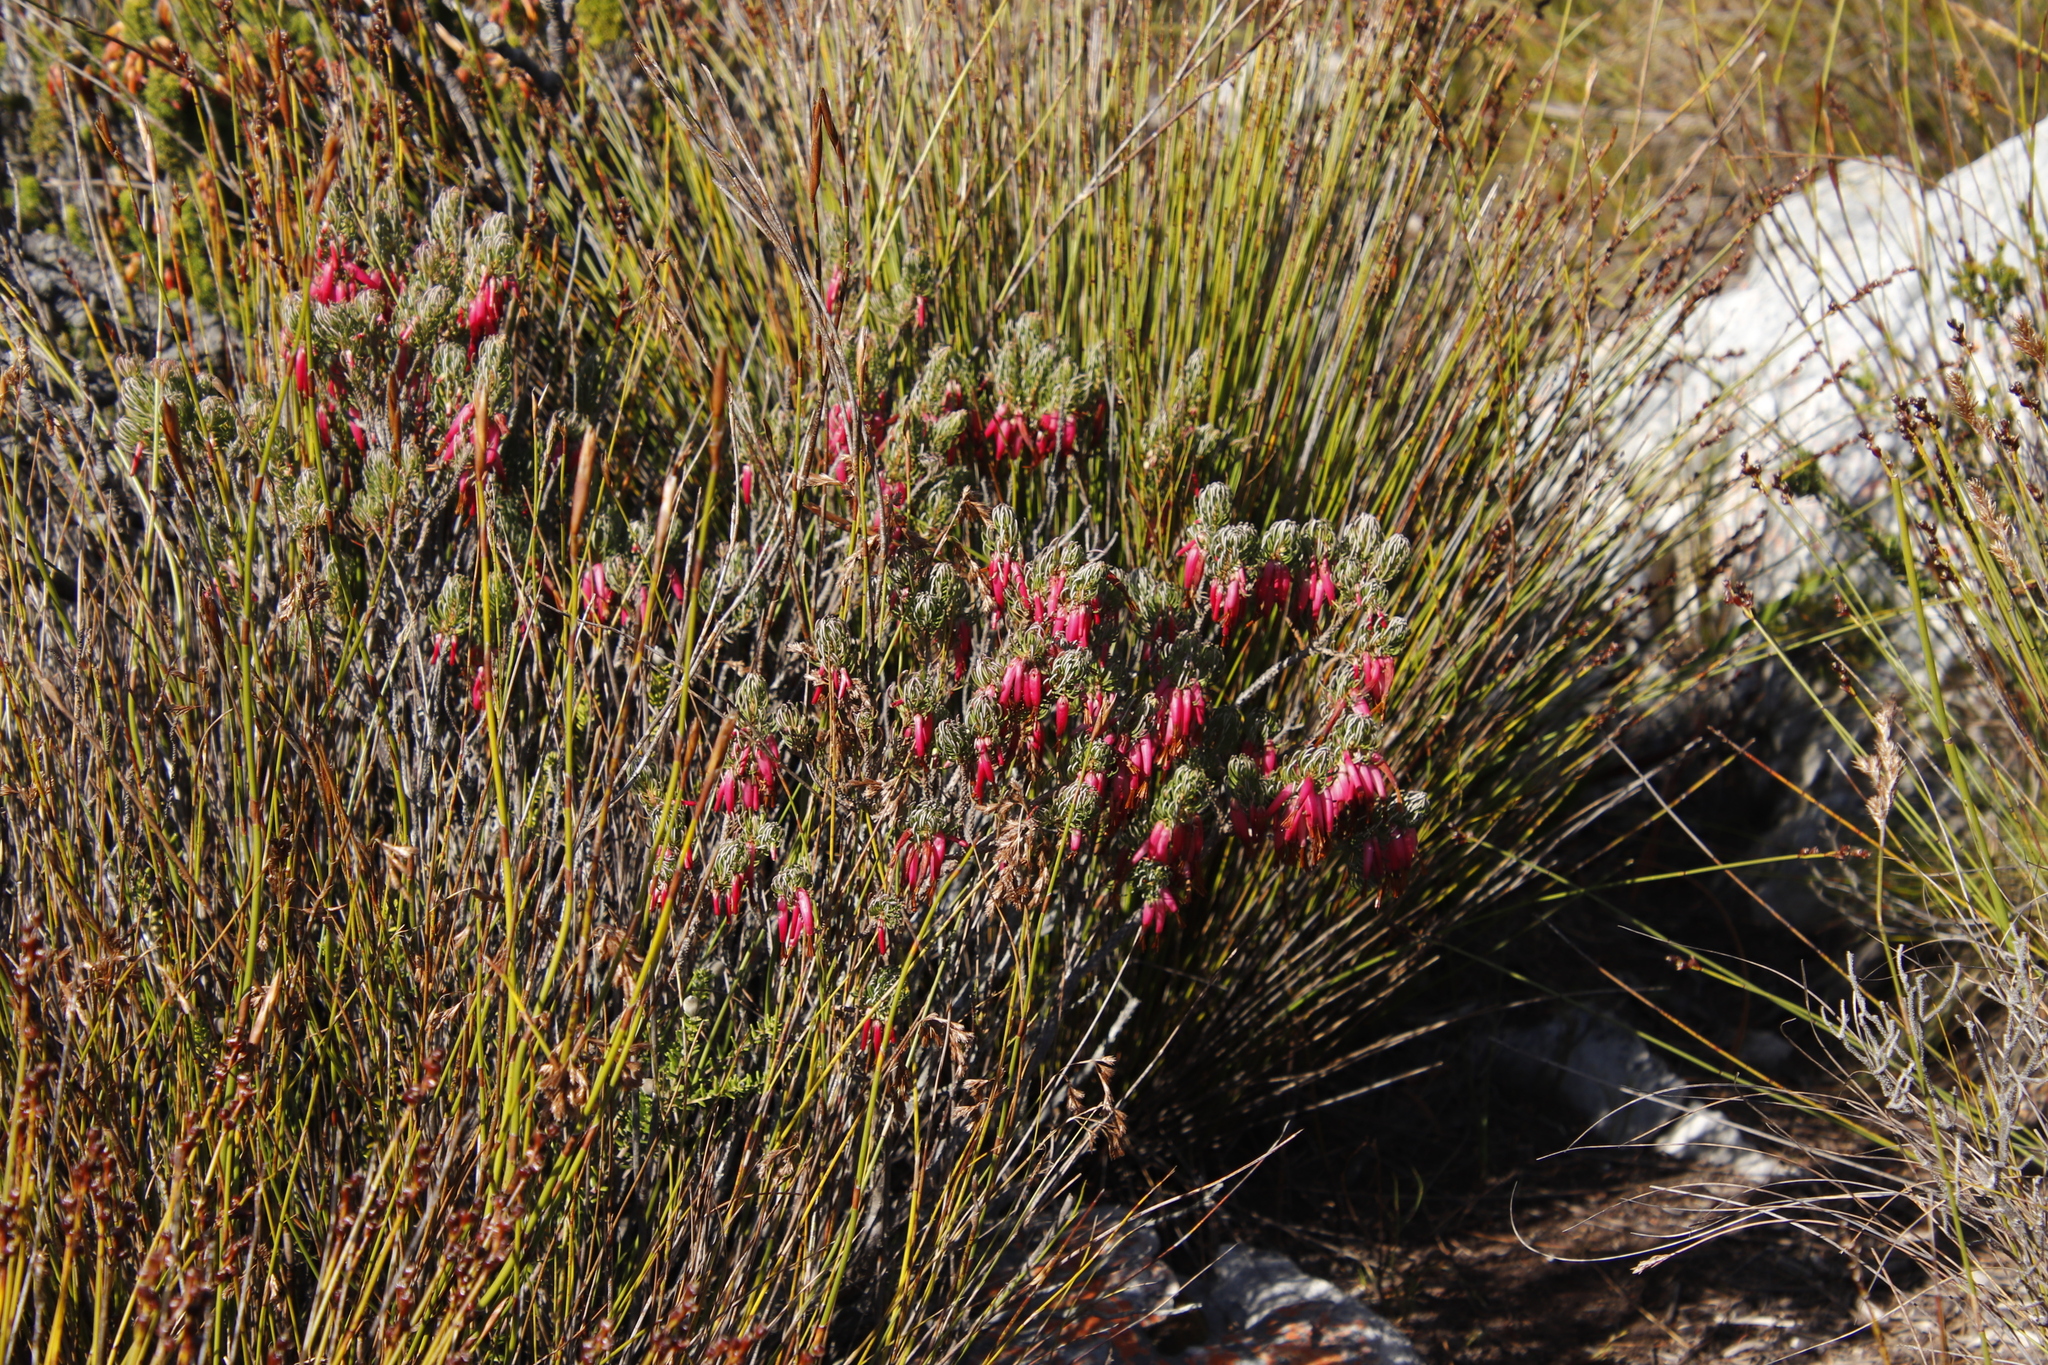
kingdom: Plantae
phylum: Tracheophyta
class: Magnoliopsida
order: Ericales
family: Ericaceae
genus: Erica
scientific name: Erica plukenetii
